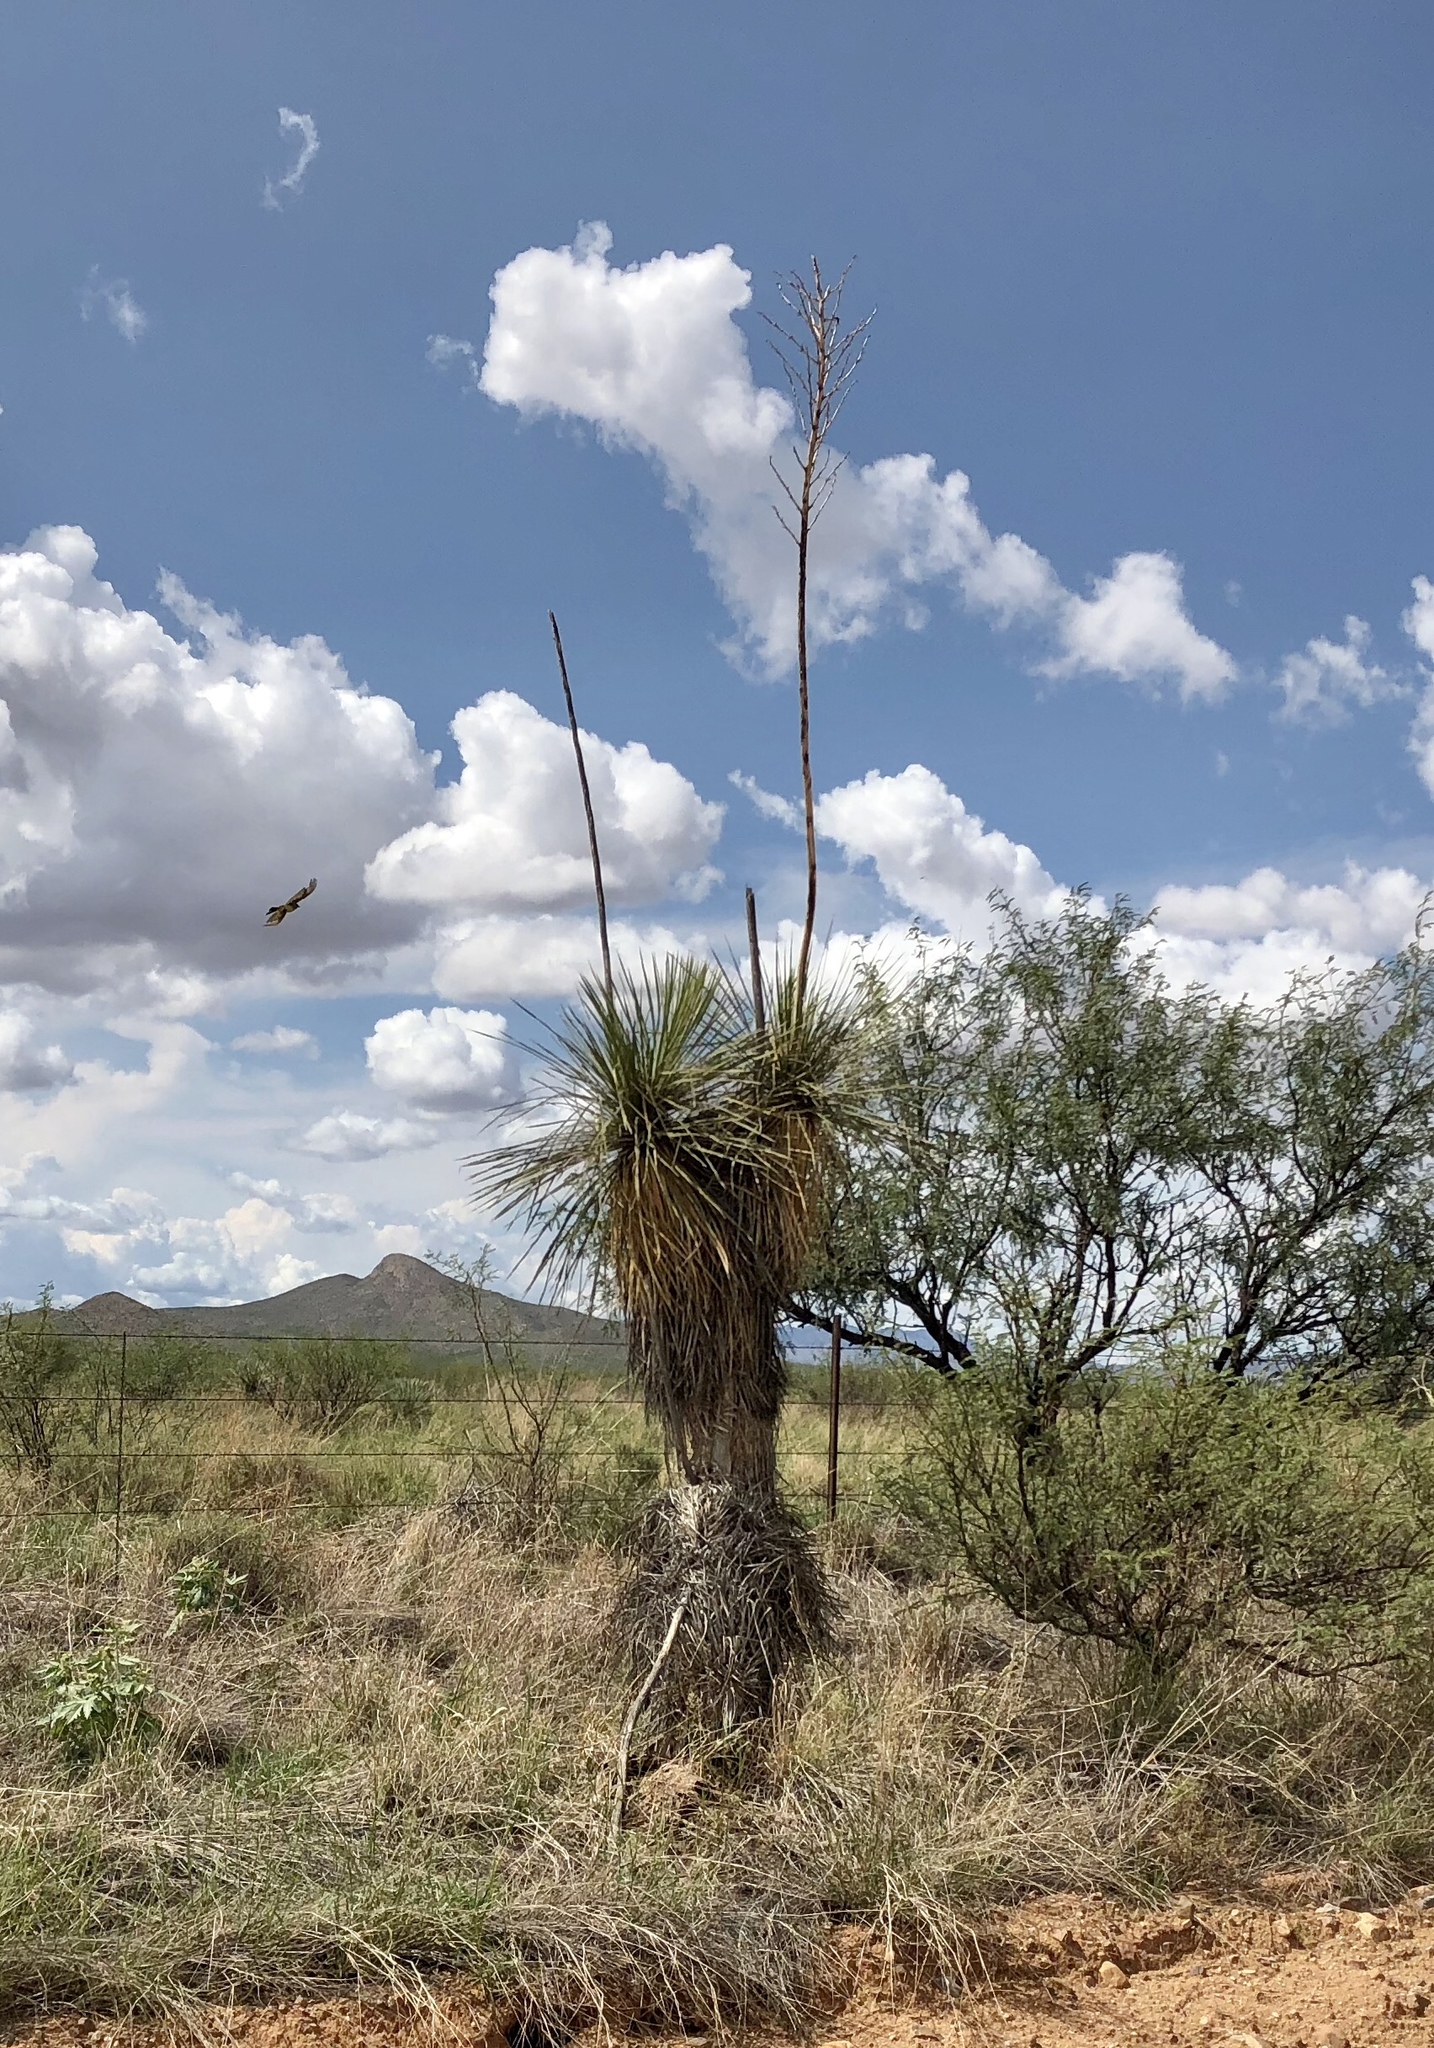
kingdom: Plantae
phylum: Tracheophyta
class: Liliopsida
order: Asparagales
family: Asparagaceae
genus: Yucca
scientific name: Yucca elata
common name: Palmella
